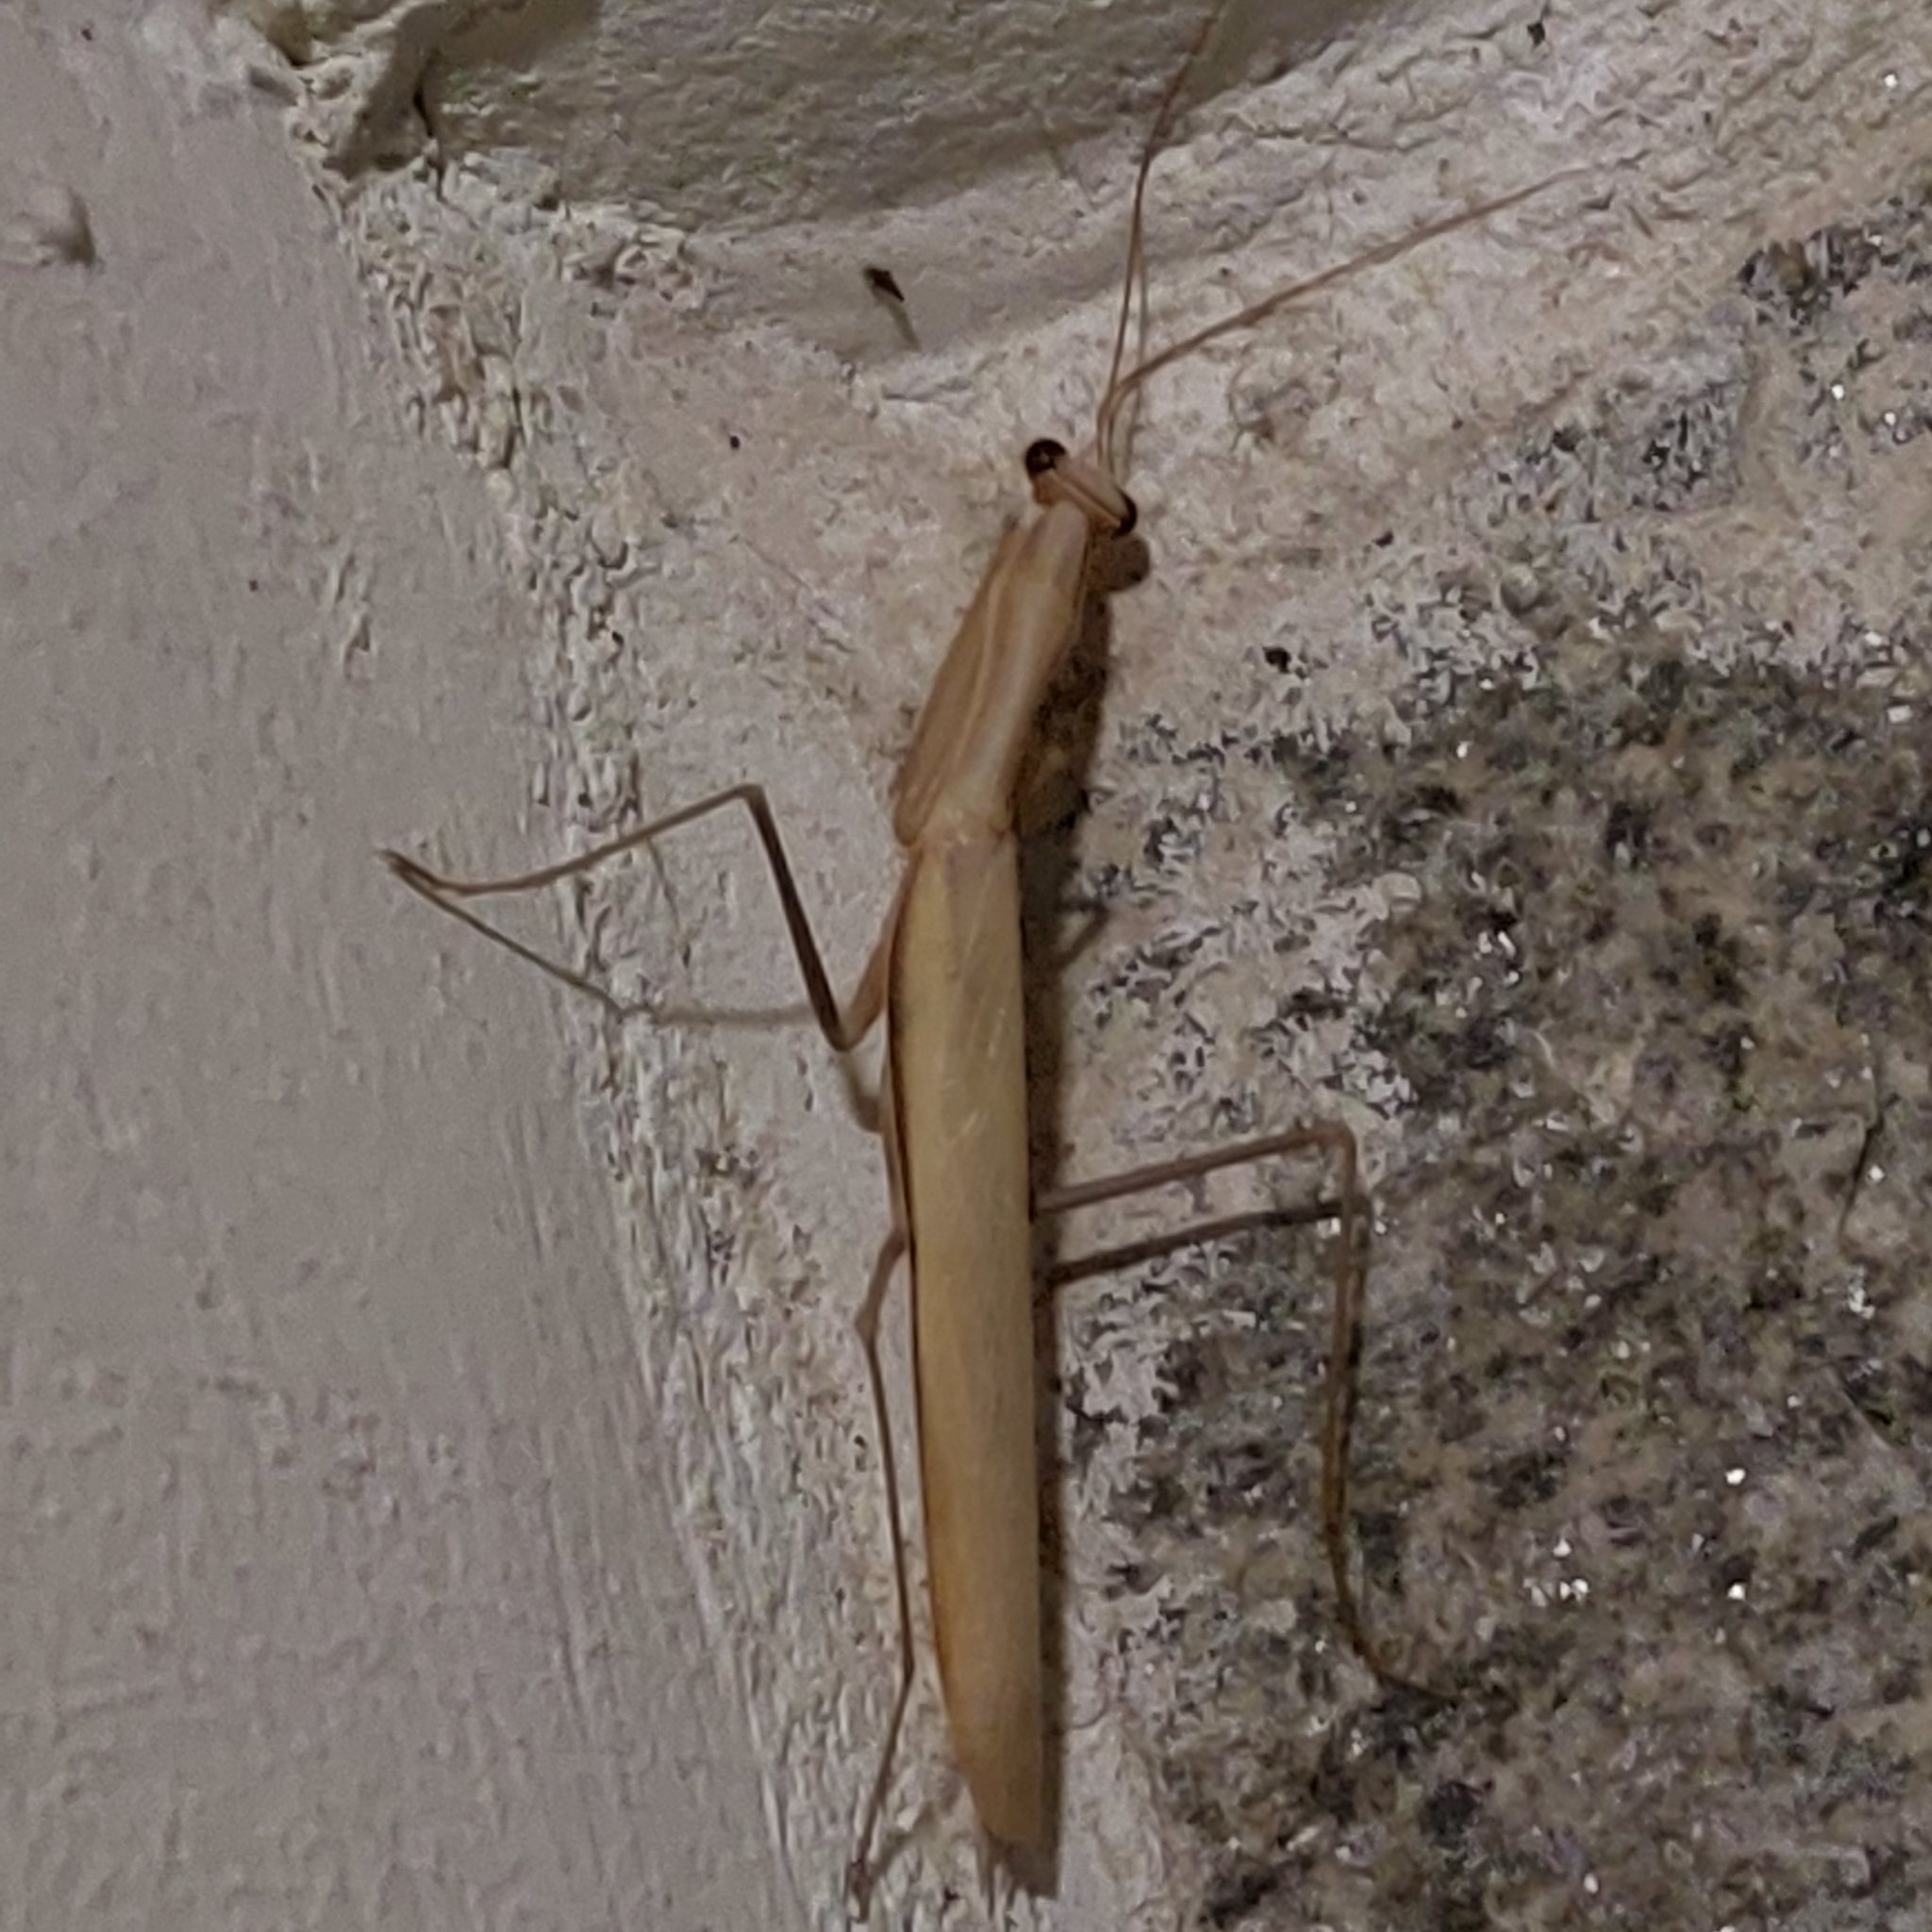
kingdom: Animalia
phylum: Arthropoda
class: Insecta
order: Mantodea
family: Mantidae
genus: Mantis
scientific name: Mantis religiosa
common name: Praying mantis
